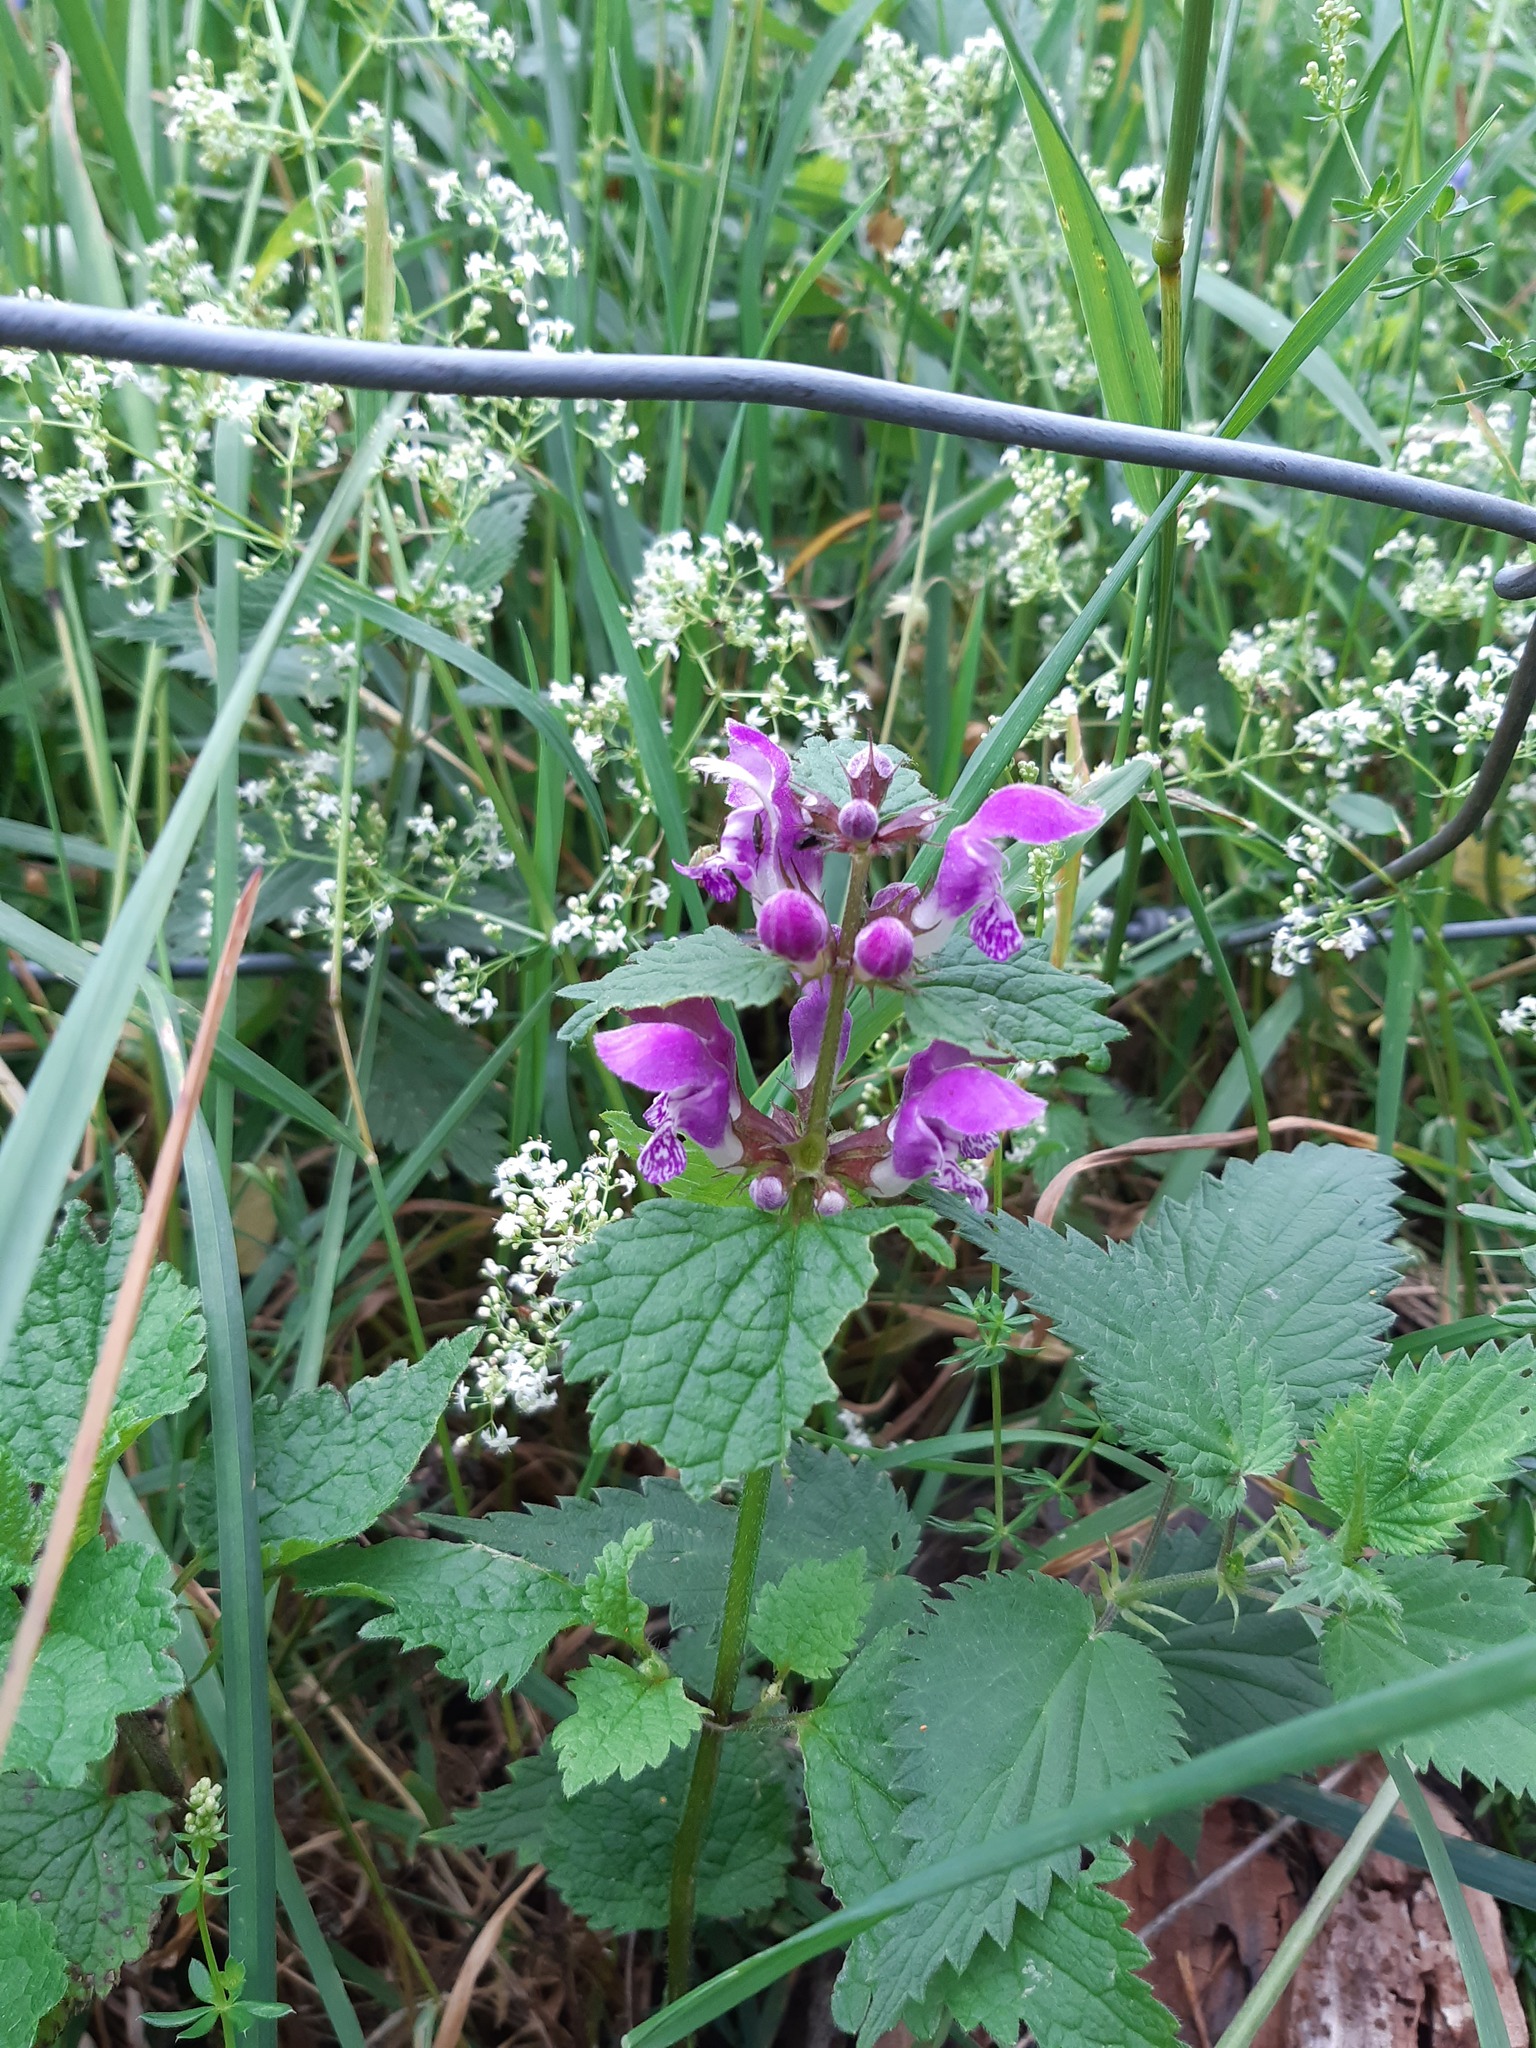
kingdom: Plantae
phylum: Tracheophyta
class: Magnoliopsida
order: Lamiales
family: Lamiaceae
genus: Lamium
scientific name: Lamium maculatum
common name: Spotted dead-nettle
